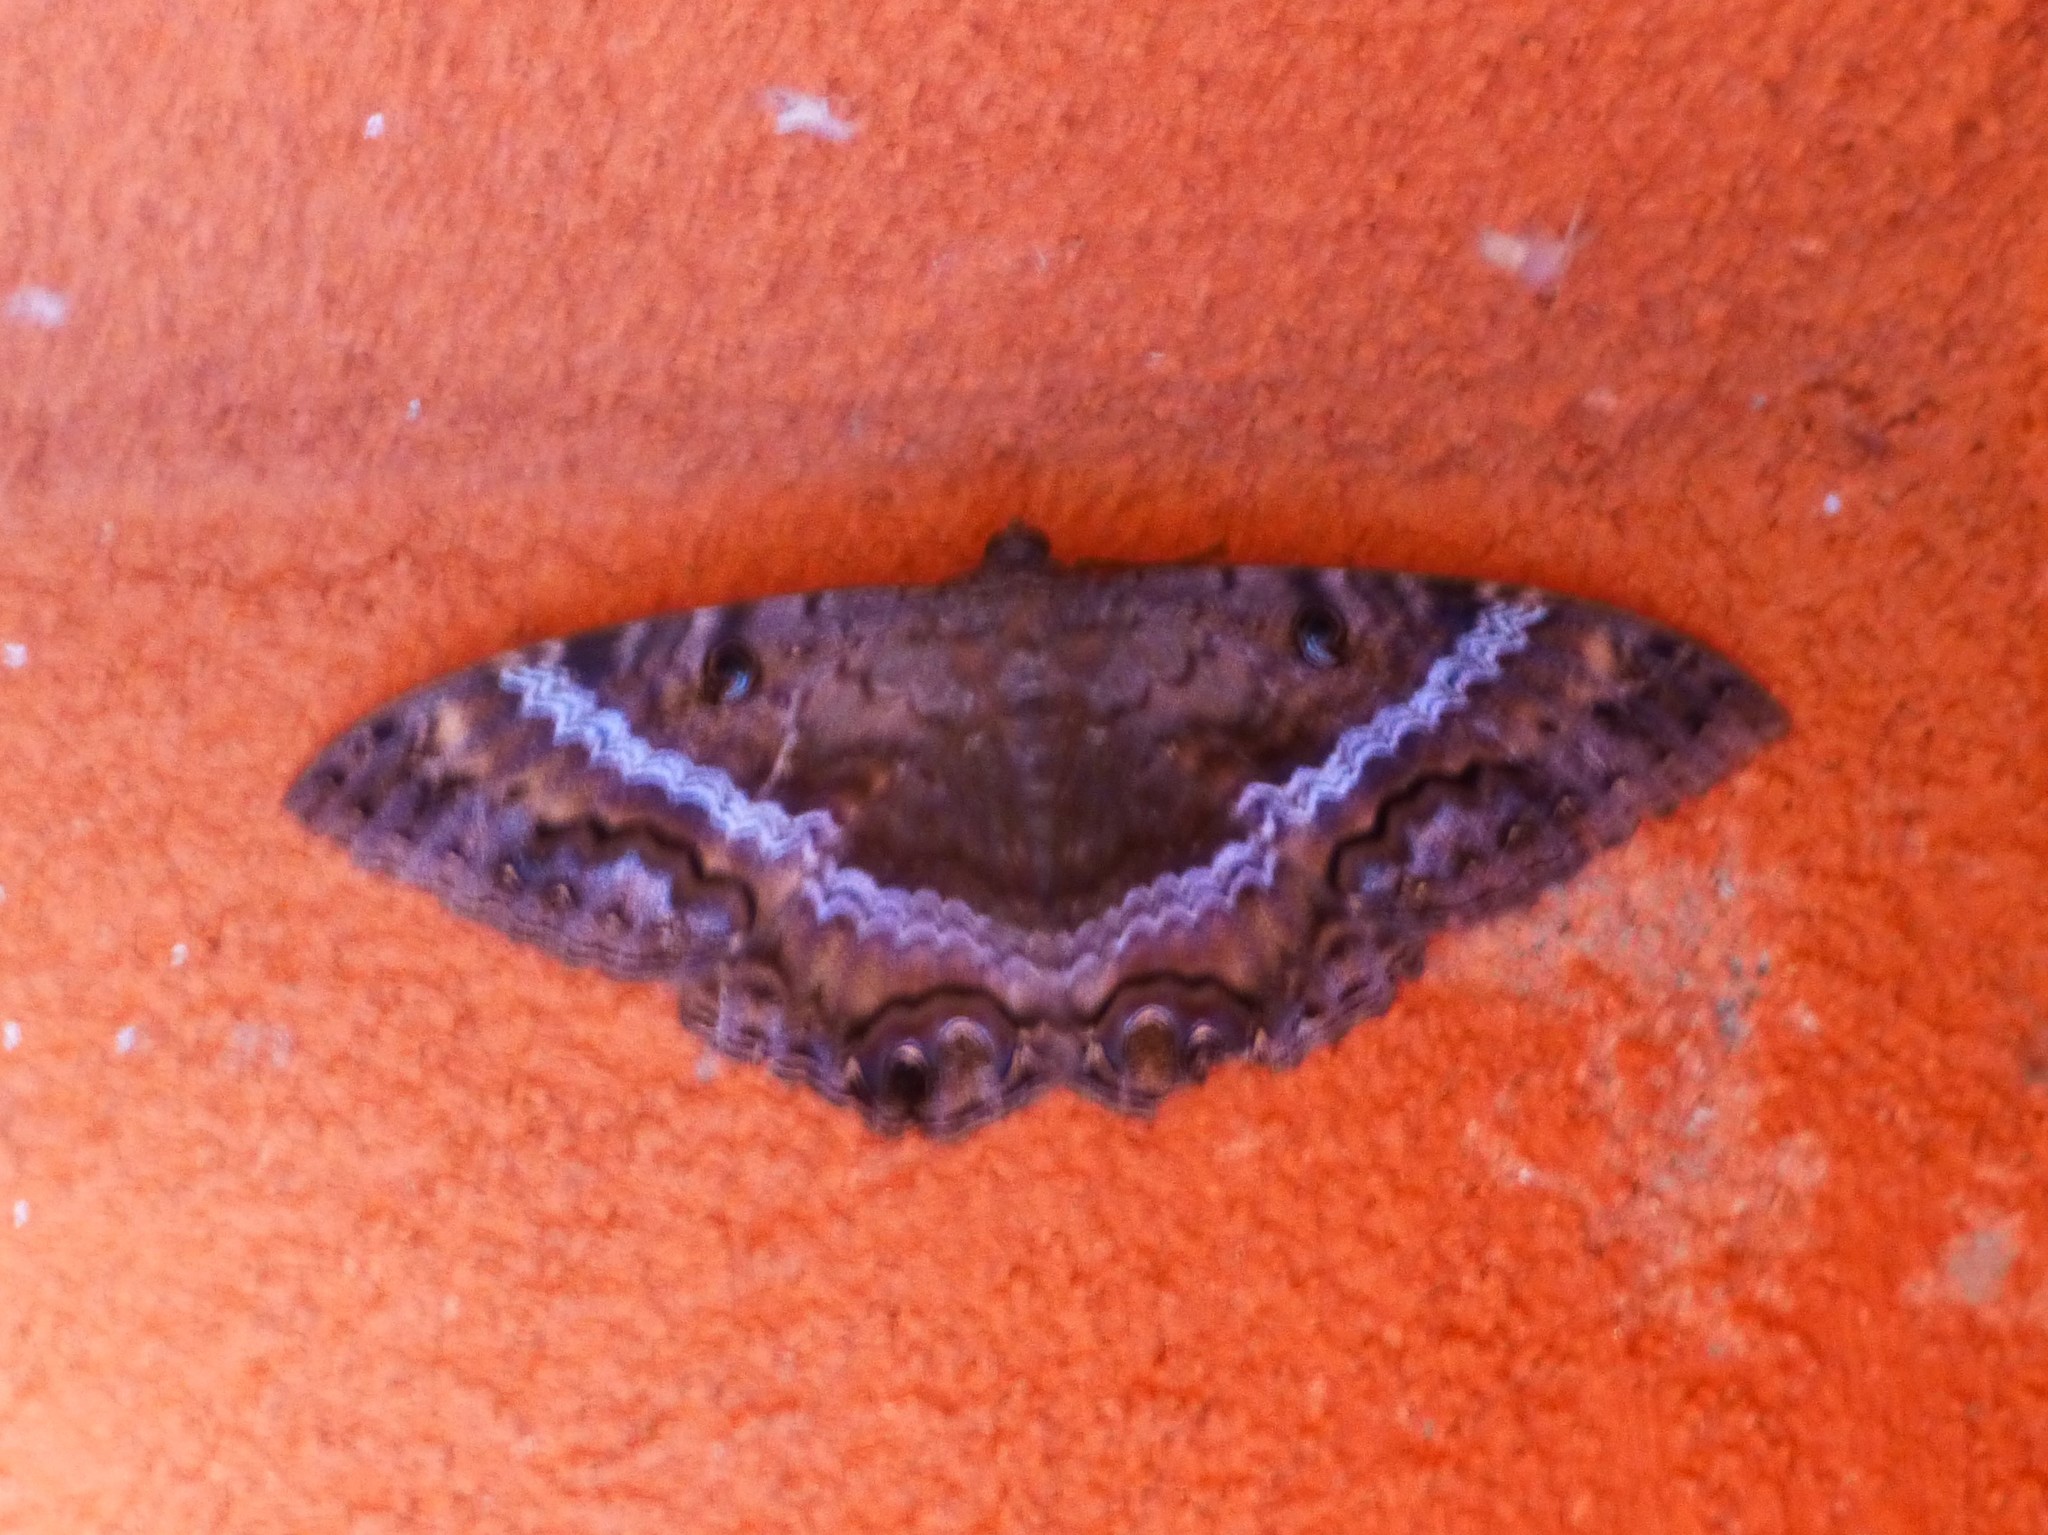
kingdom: Animalia
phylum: Arthropoda
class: Insecta
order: Lepidoptera
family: Erebidae
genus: Ascalapha
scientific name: Ascalapha odorata
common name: Black witch
